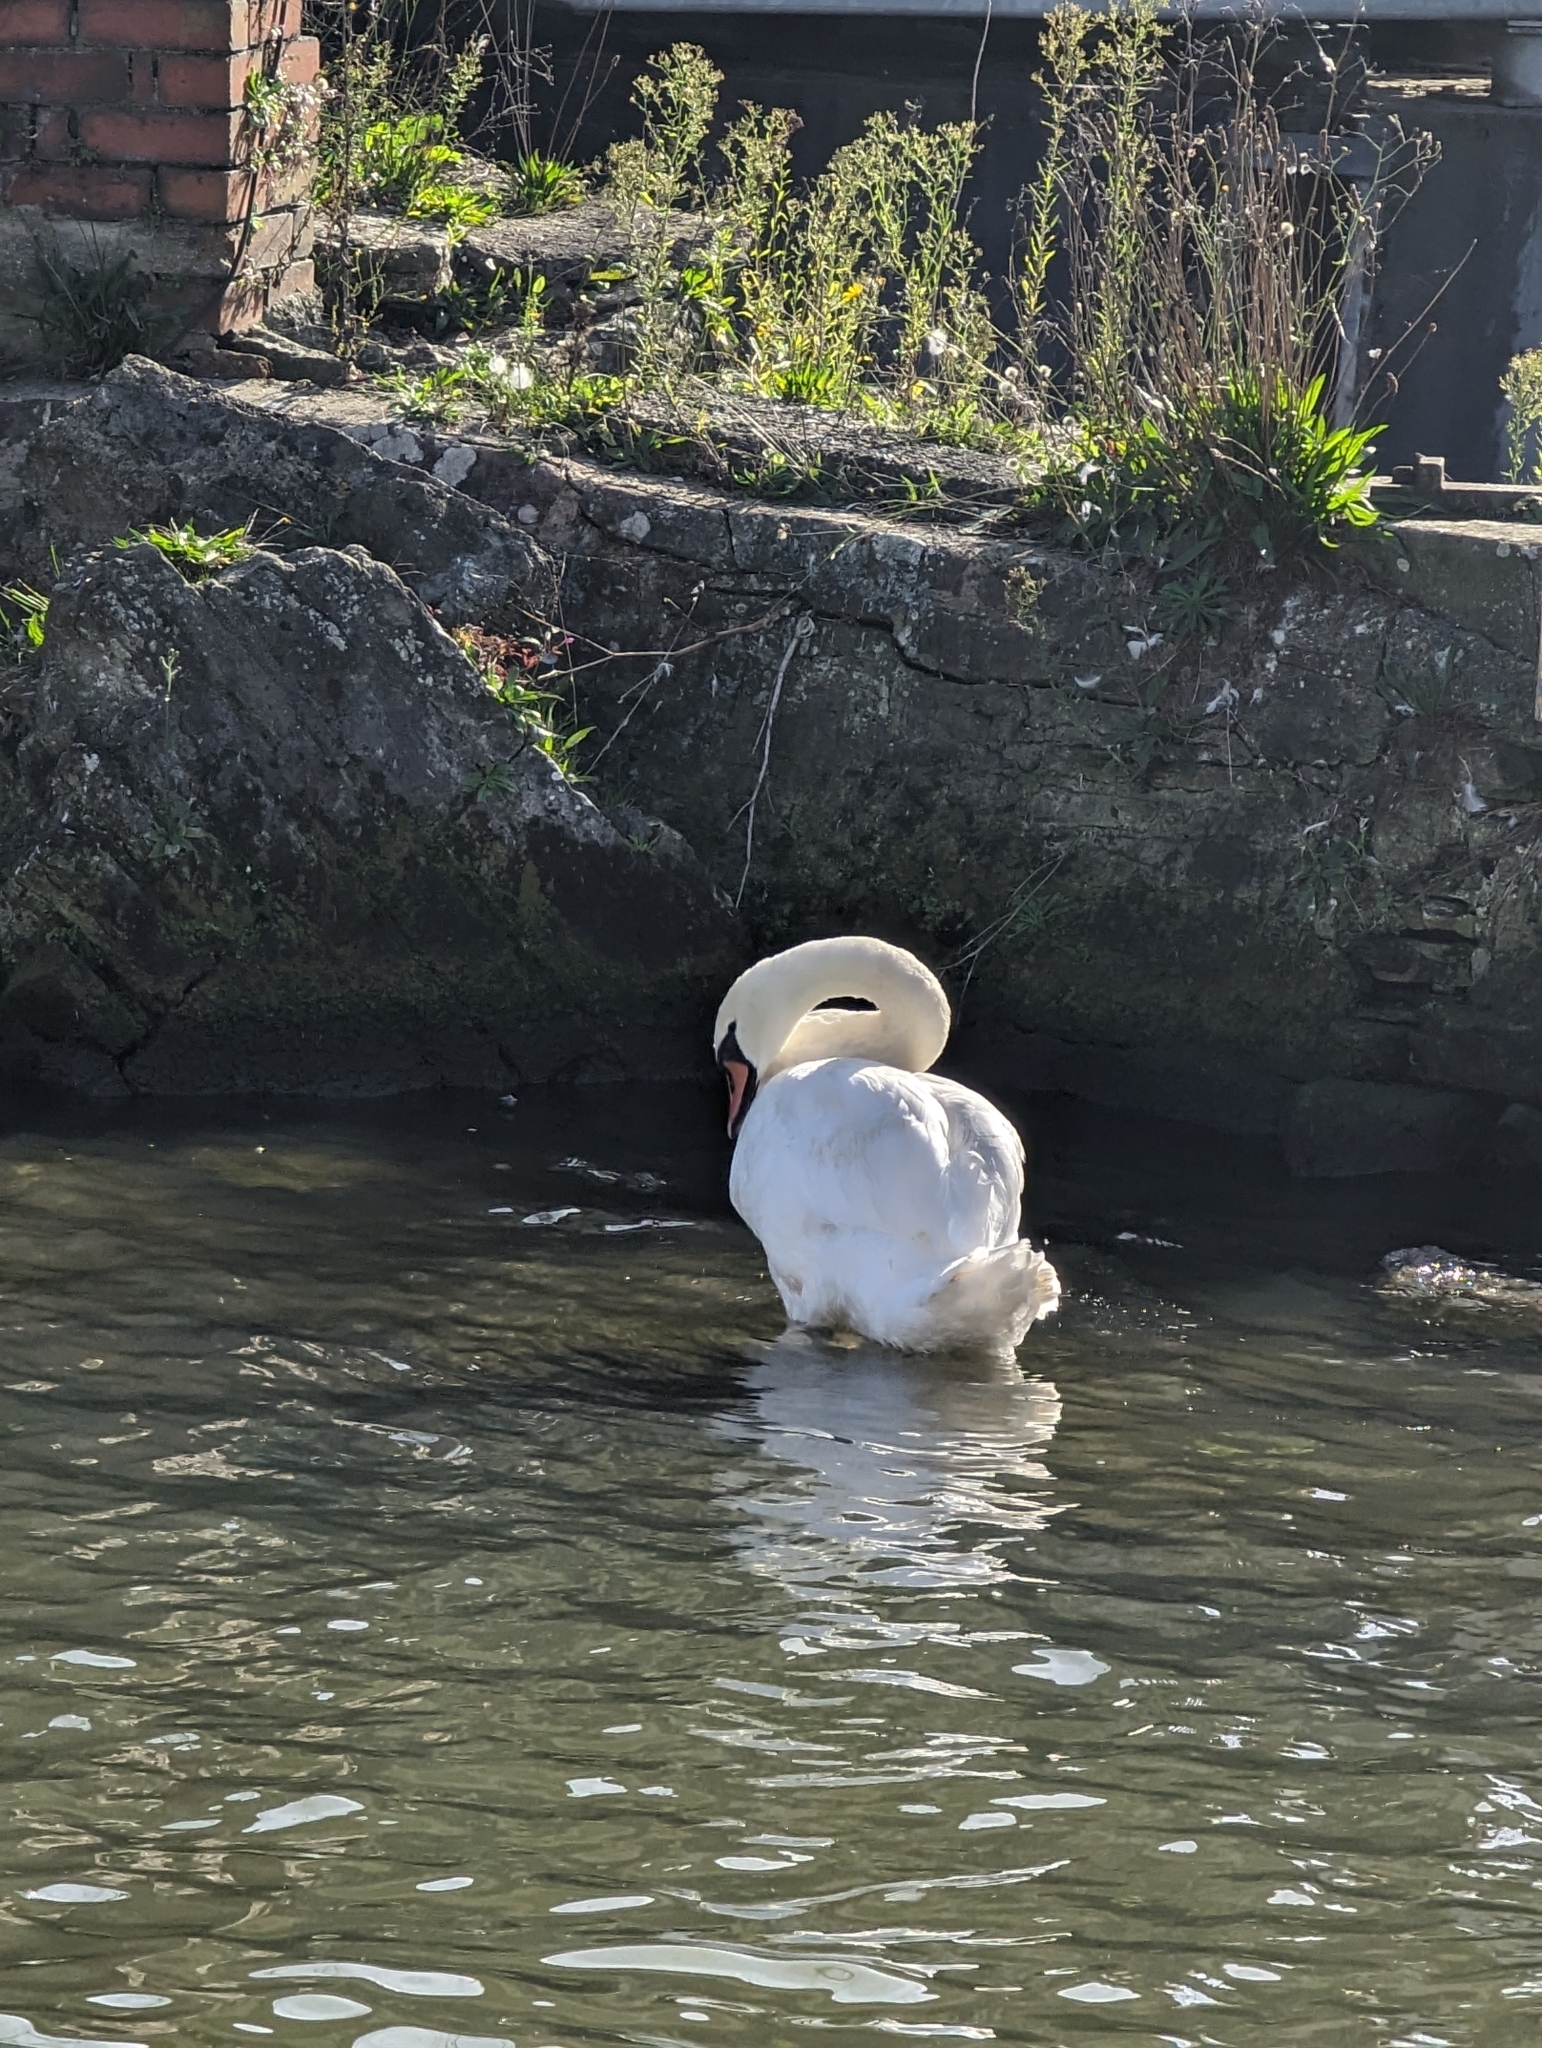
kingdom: Animalia
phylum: Chordata
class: Aves
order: Anseriformes
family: Anatidae
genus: Cygnus
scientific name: Cygnus olor
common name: Mute swan
